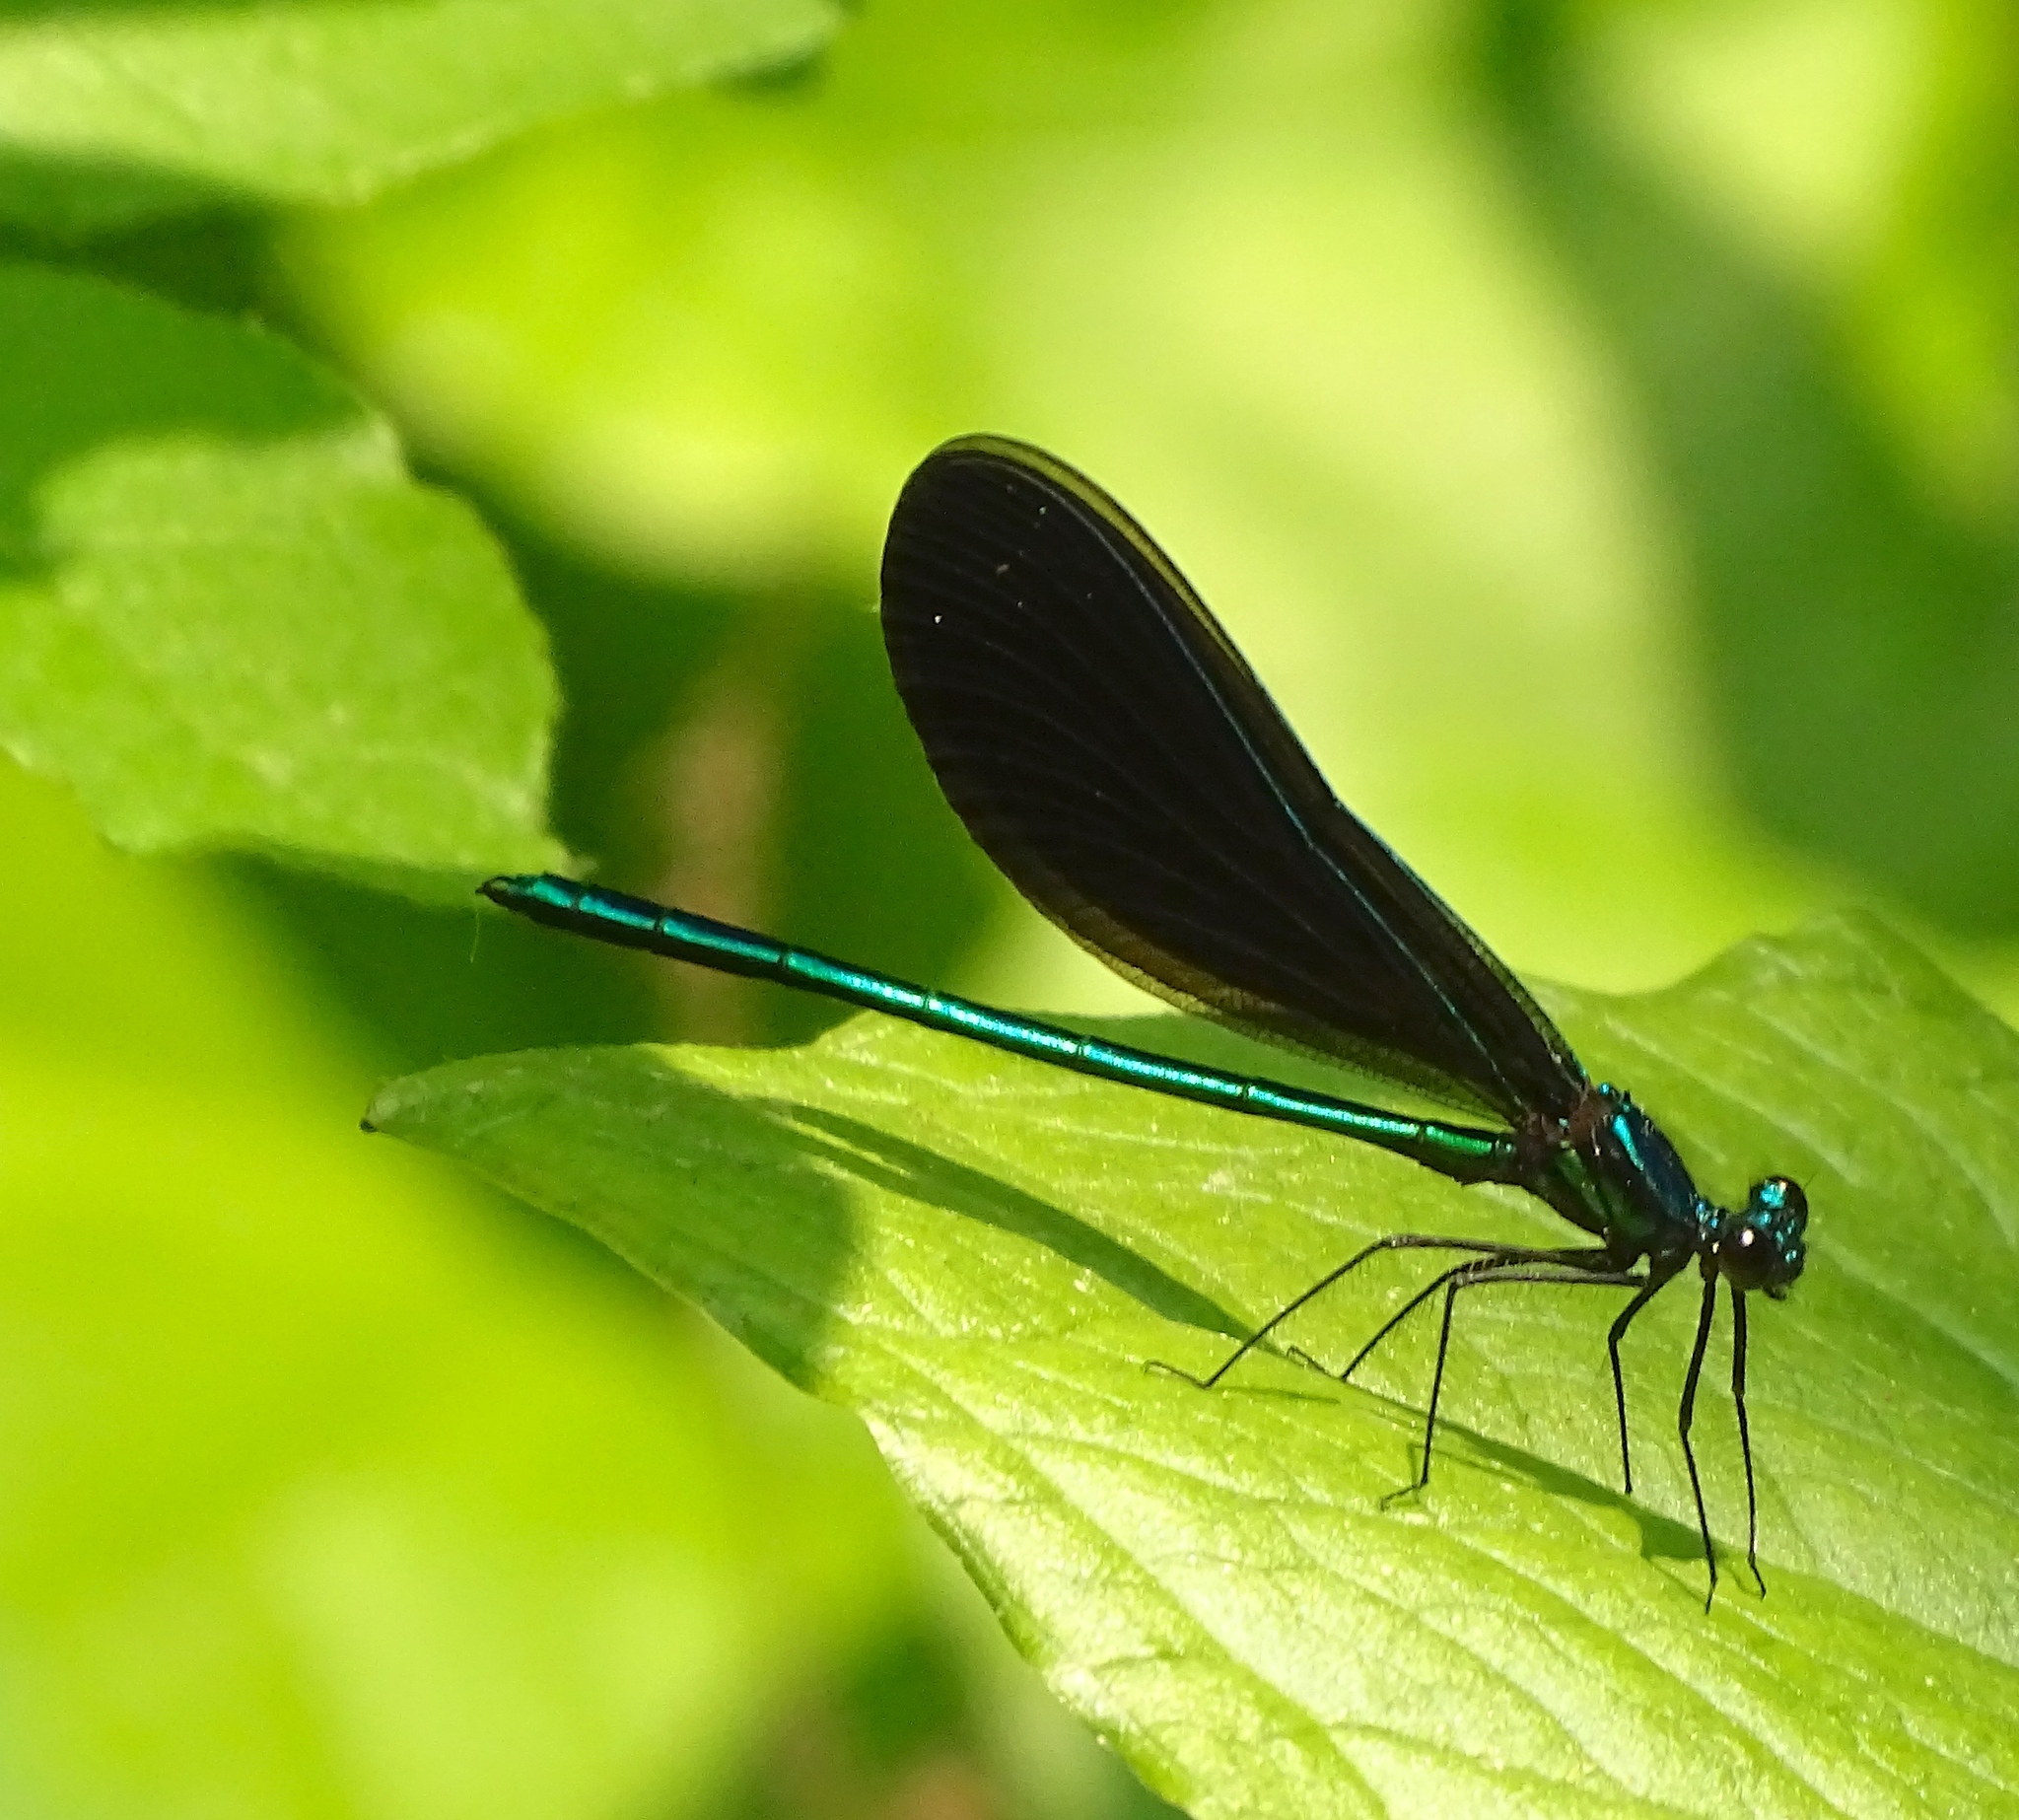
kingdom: Animalia
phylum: Arthropoda
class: Insecta
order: Odonata
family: Calopterygidae
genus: Calopteryx
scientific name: Calopteryx maculata
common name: Ebony jewelwing
